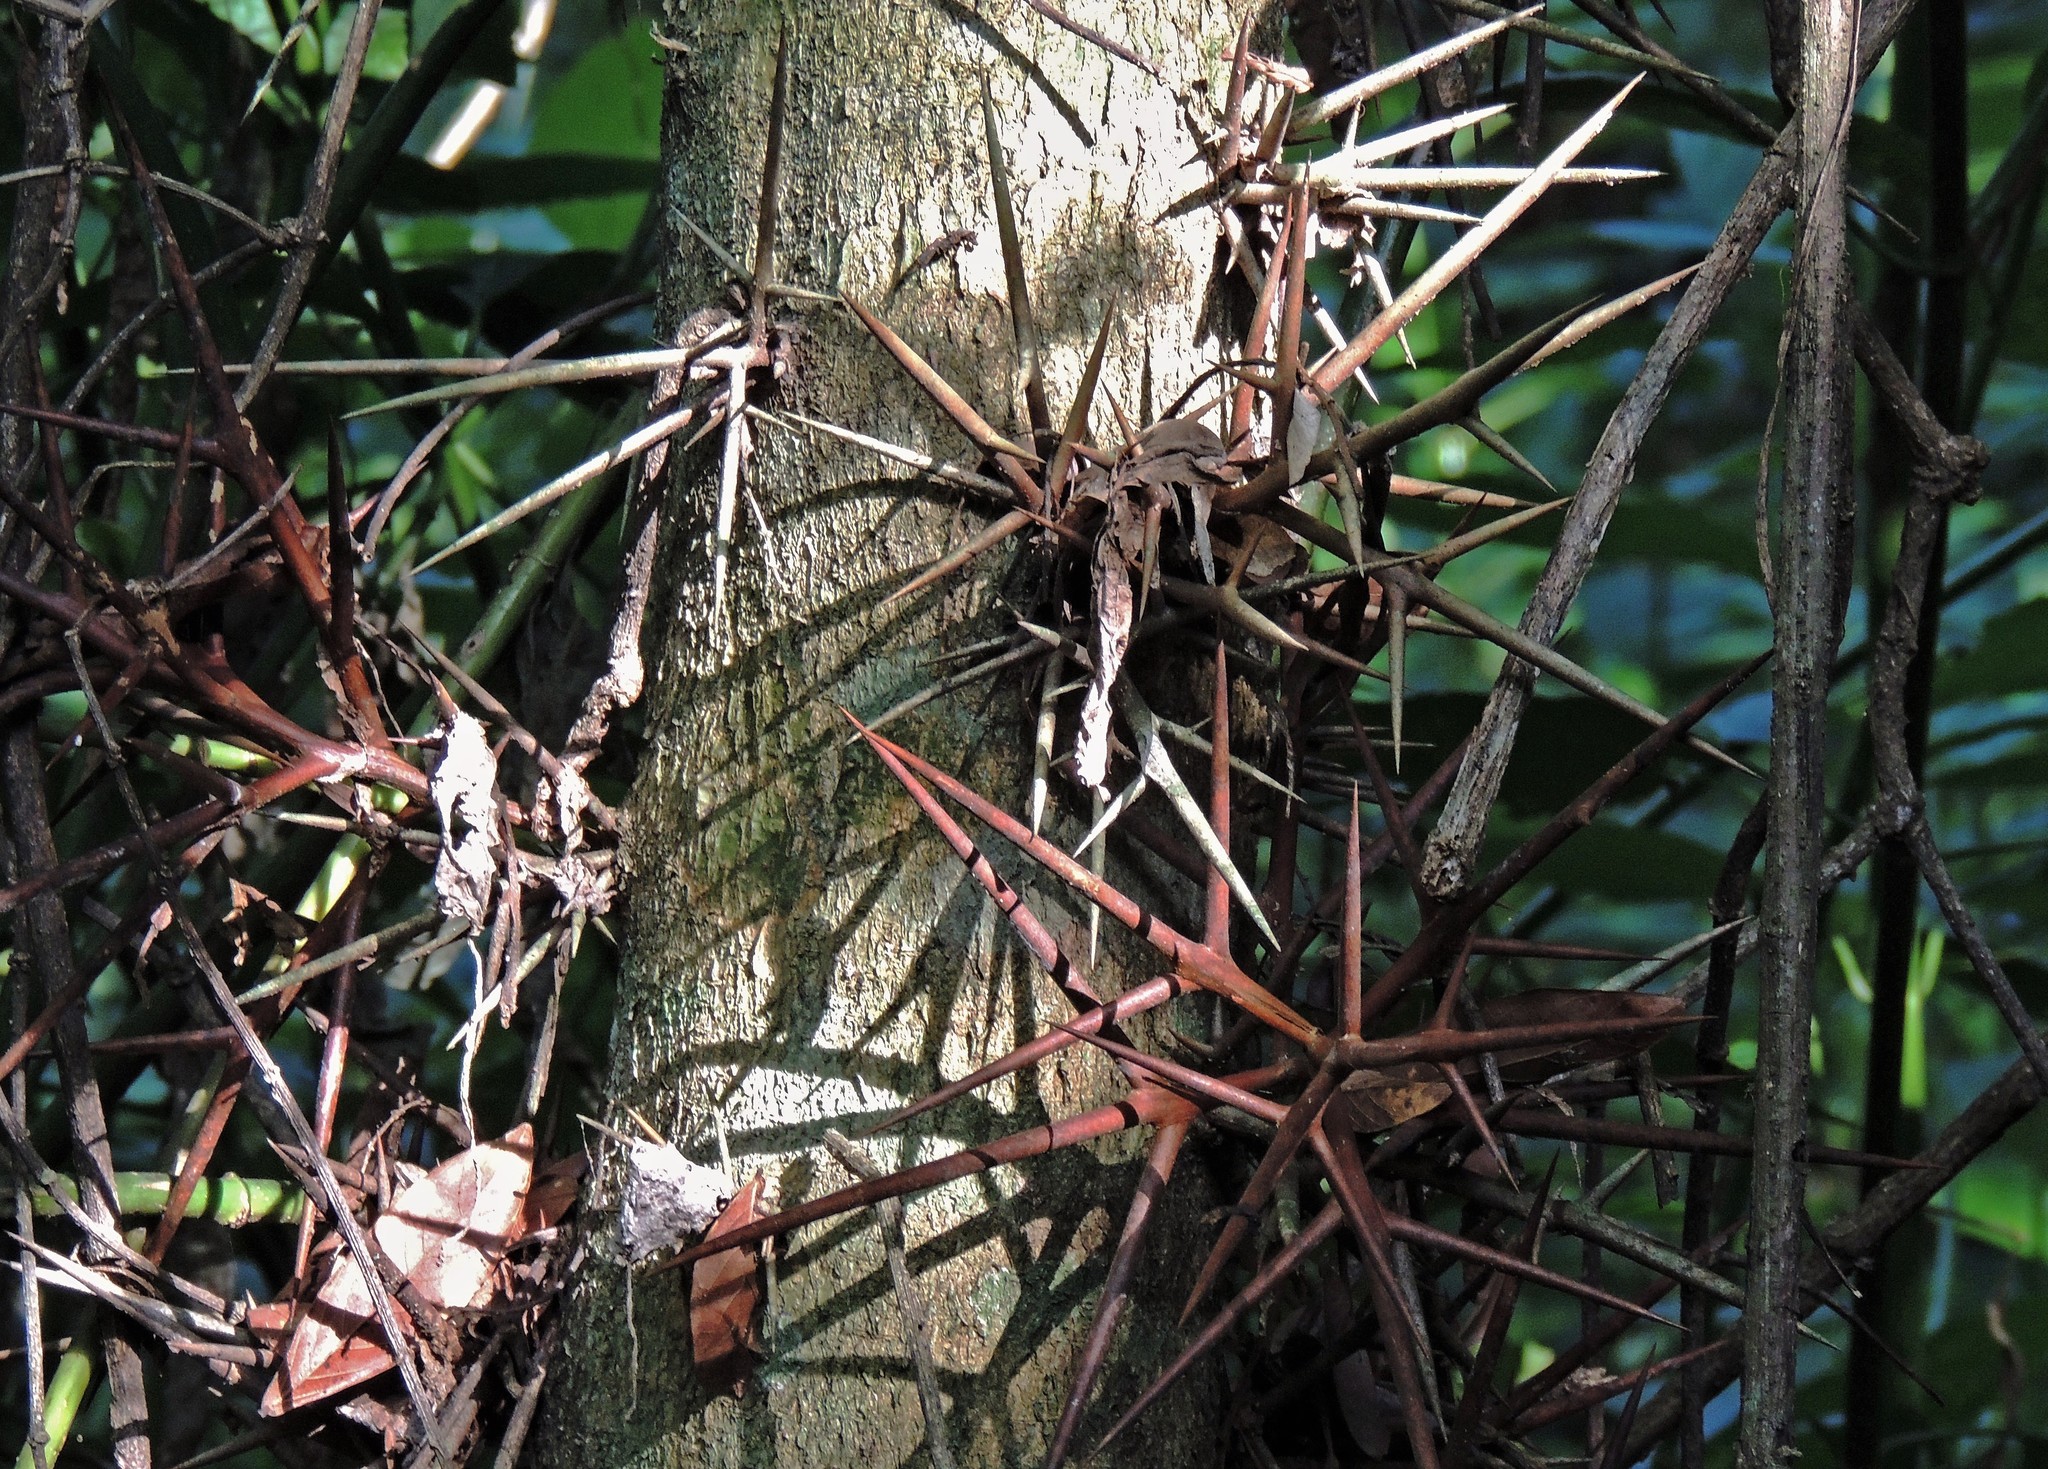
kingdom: Plantae
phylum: Tracheophyta
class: Magnoliopsida
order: Fabales
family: Fabaceae
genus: Gleditsia
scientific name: Gleditsia amorphoides
